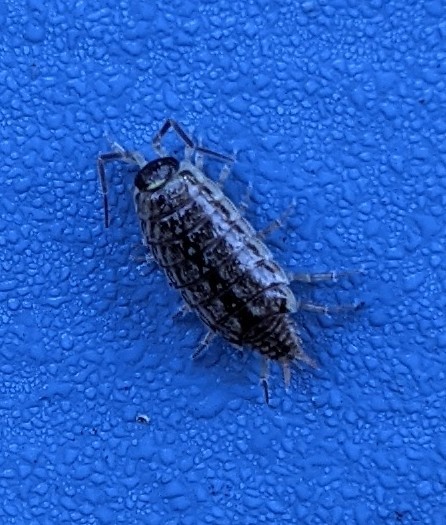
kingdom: Animalia
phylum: Arthropoda
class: Malacostraca
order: Isopoda
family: Philosciidae
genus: Philoscia
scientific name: Philoscia muscorum
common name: Common striped woodlouse
